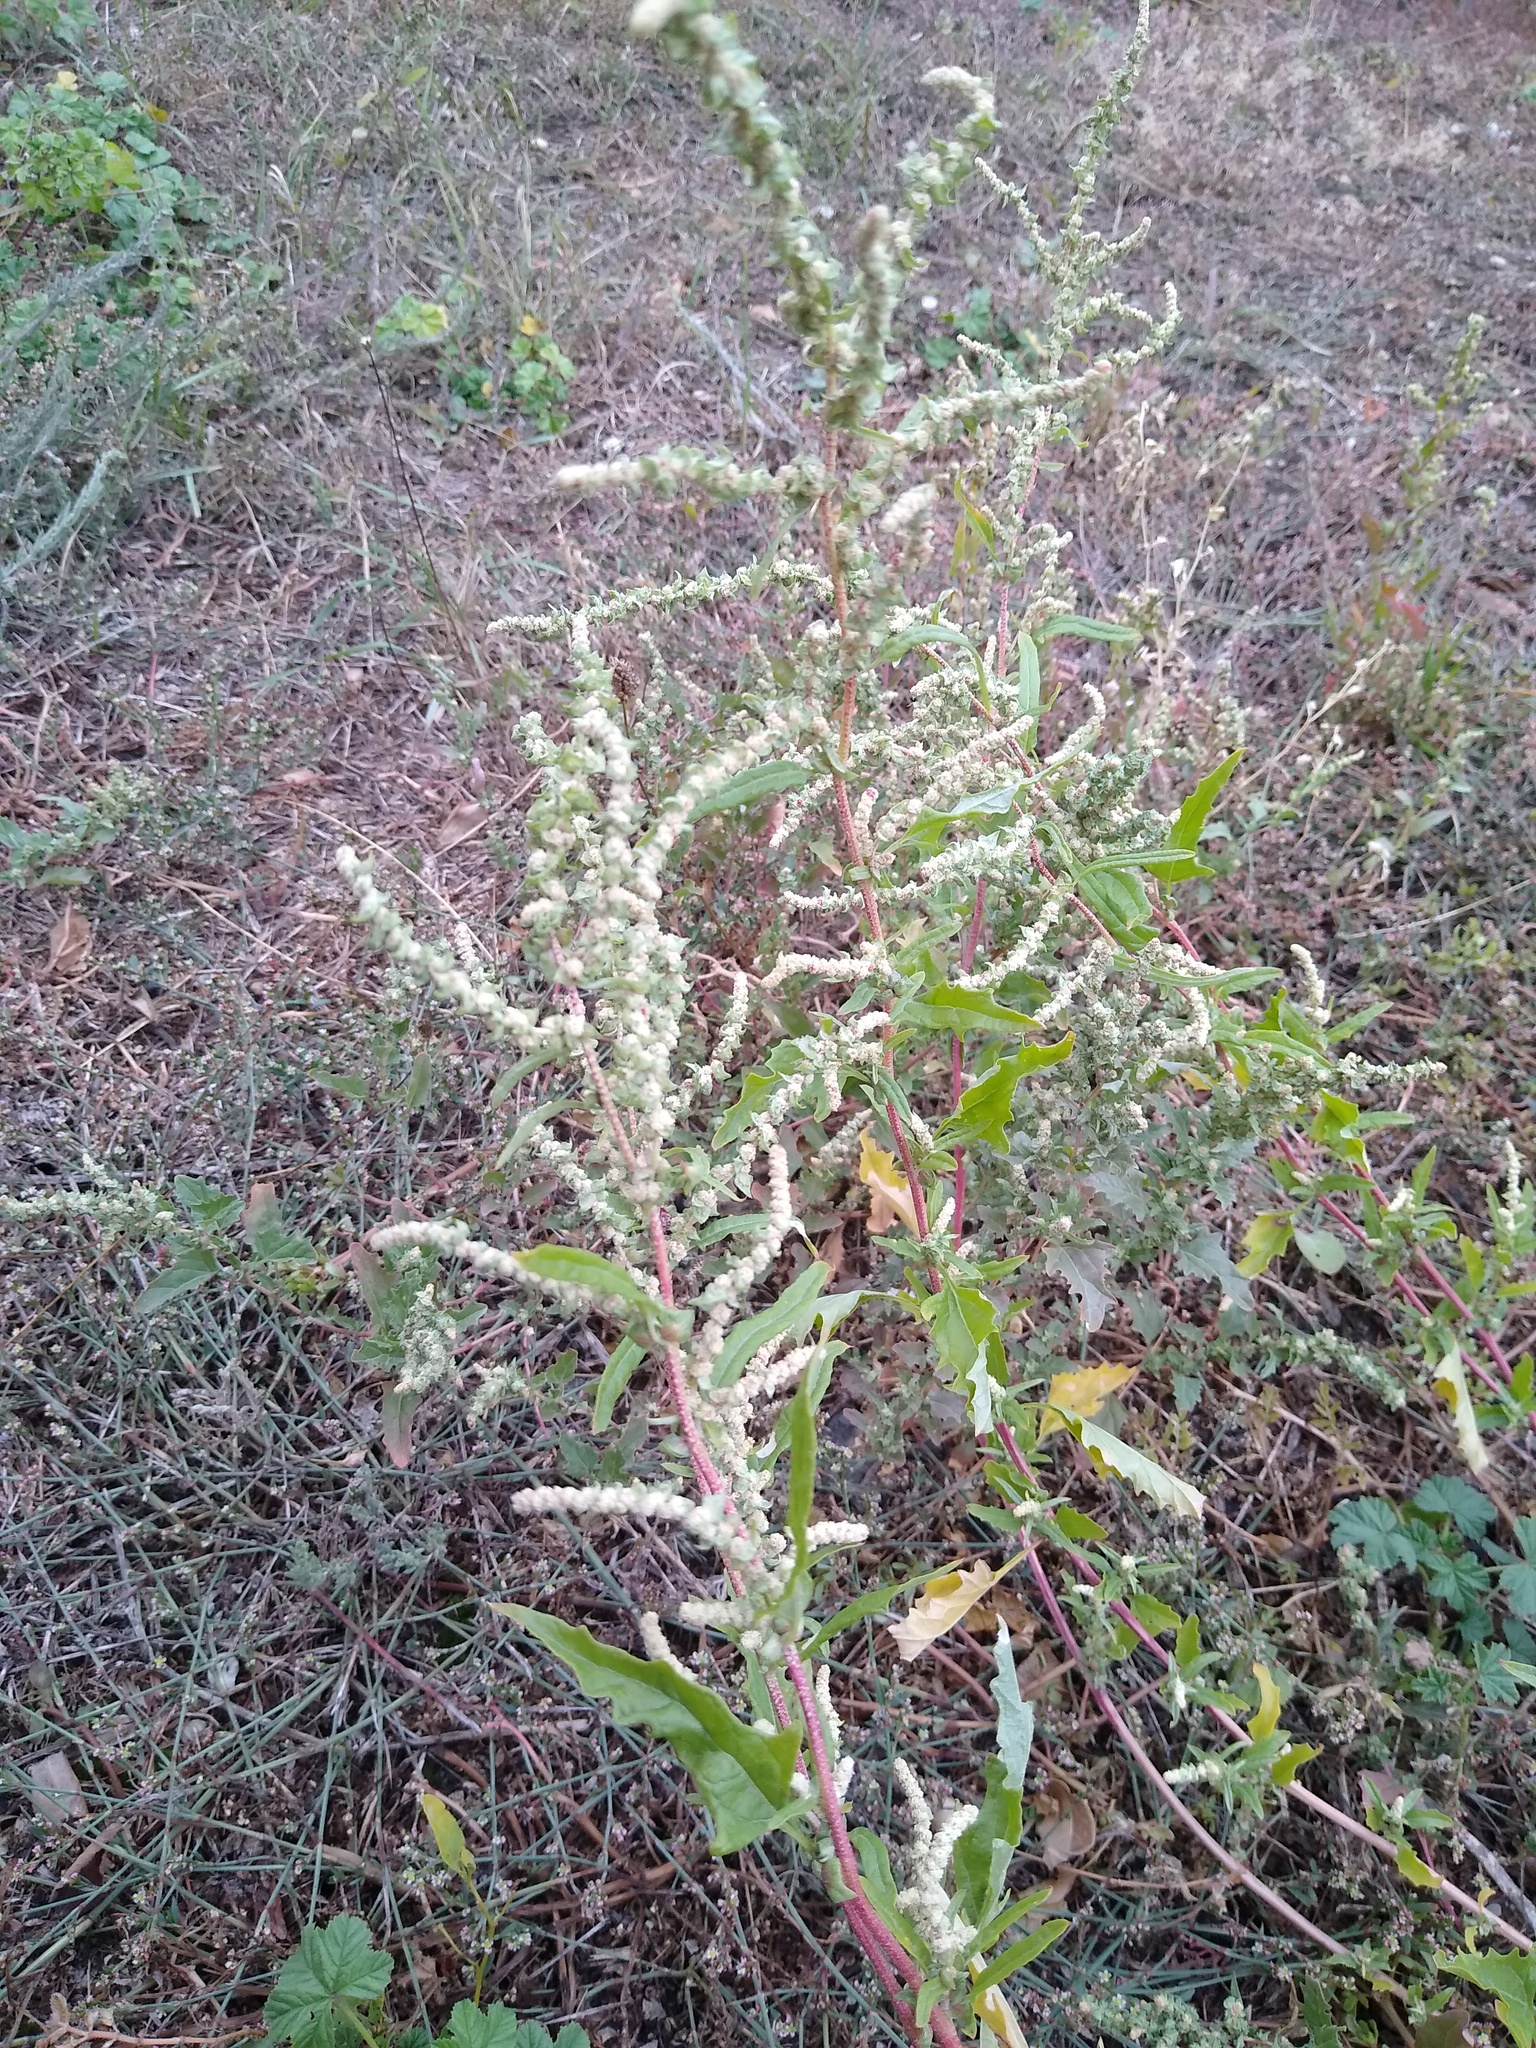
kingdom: Plantae
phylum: Tracheophyta
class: Magnoliopsida
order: Caryophyllales
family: Amaranthaceae
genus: Atriplex
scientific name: Atriplex tatarica
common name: Tatarian orache
